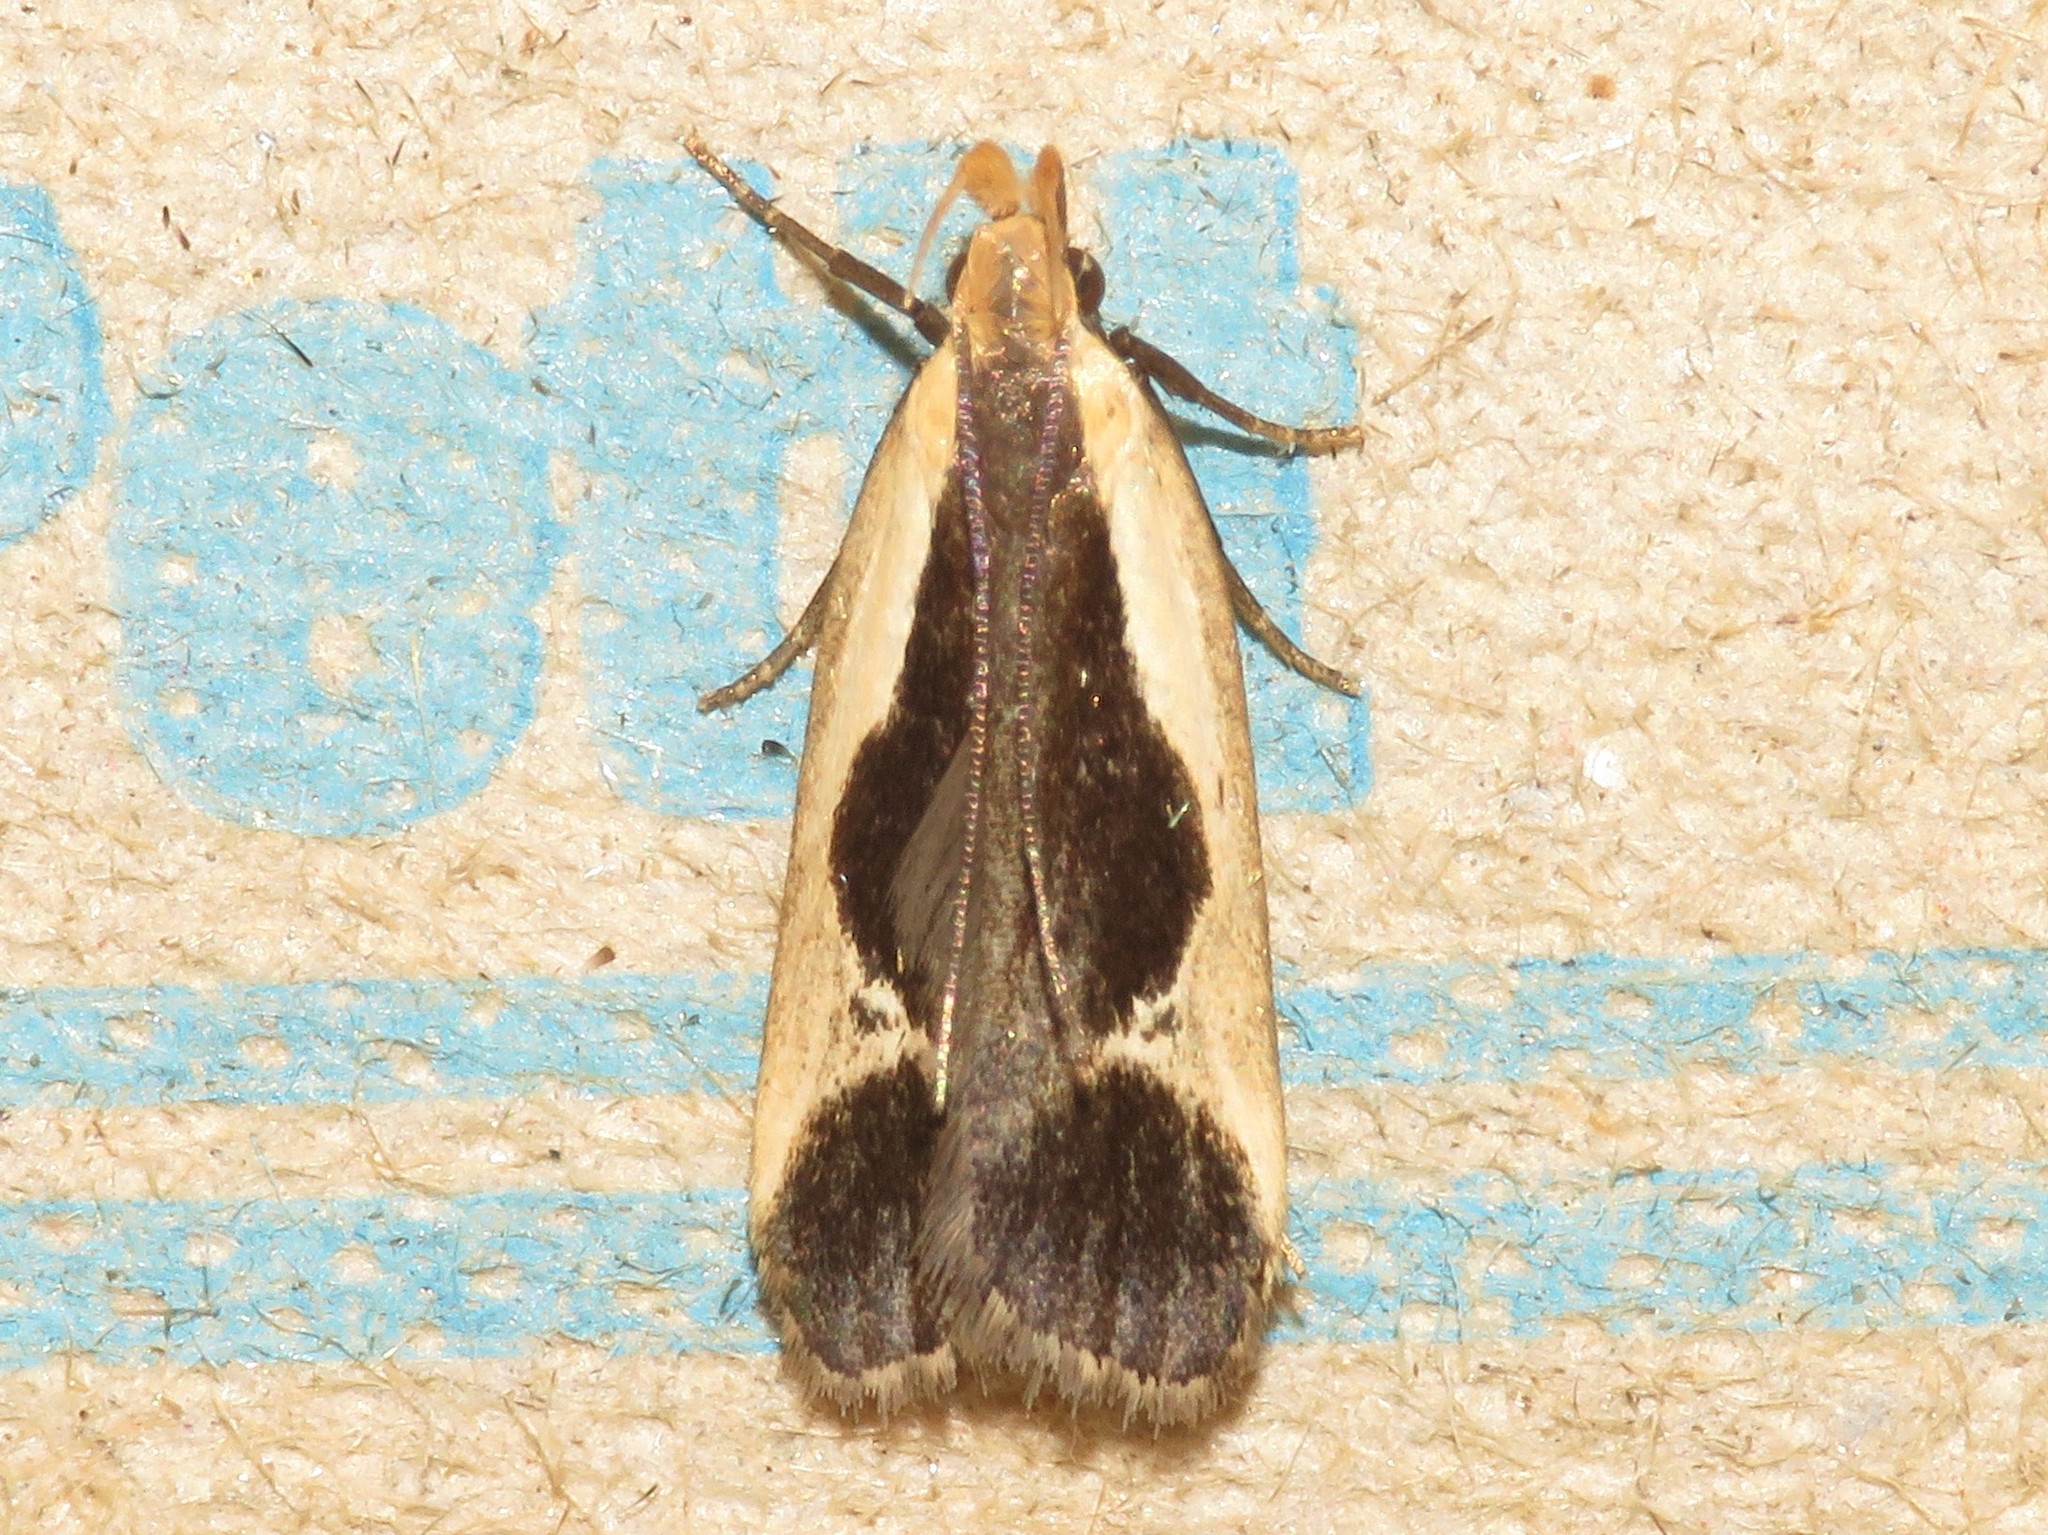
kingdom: Animalia
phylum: Arthropoda
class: Insecta
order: Lepidoptera
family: Gelechiidae
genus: Dichomeris
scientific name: Dichomeris flavocostella
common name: Cream-edged dichomeris moth
